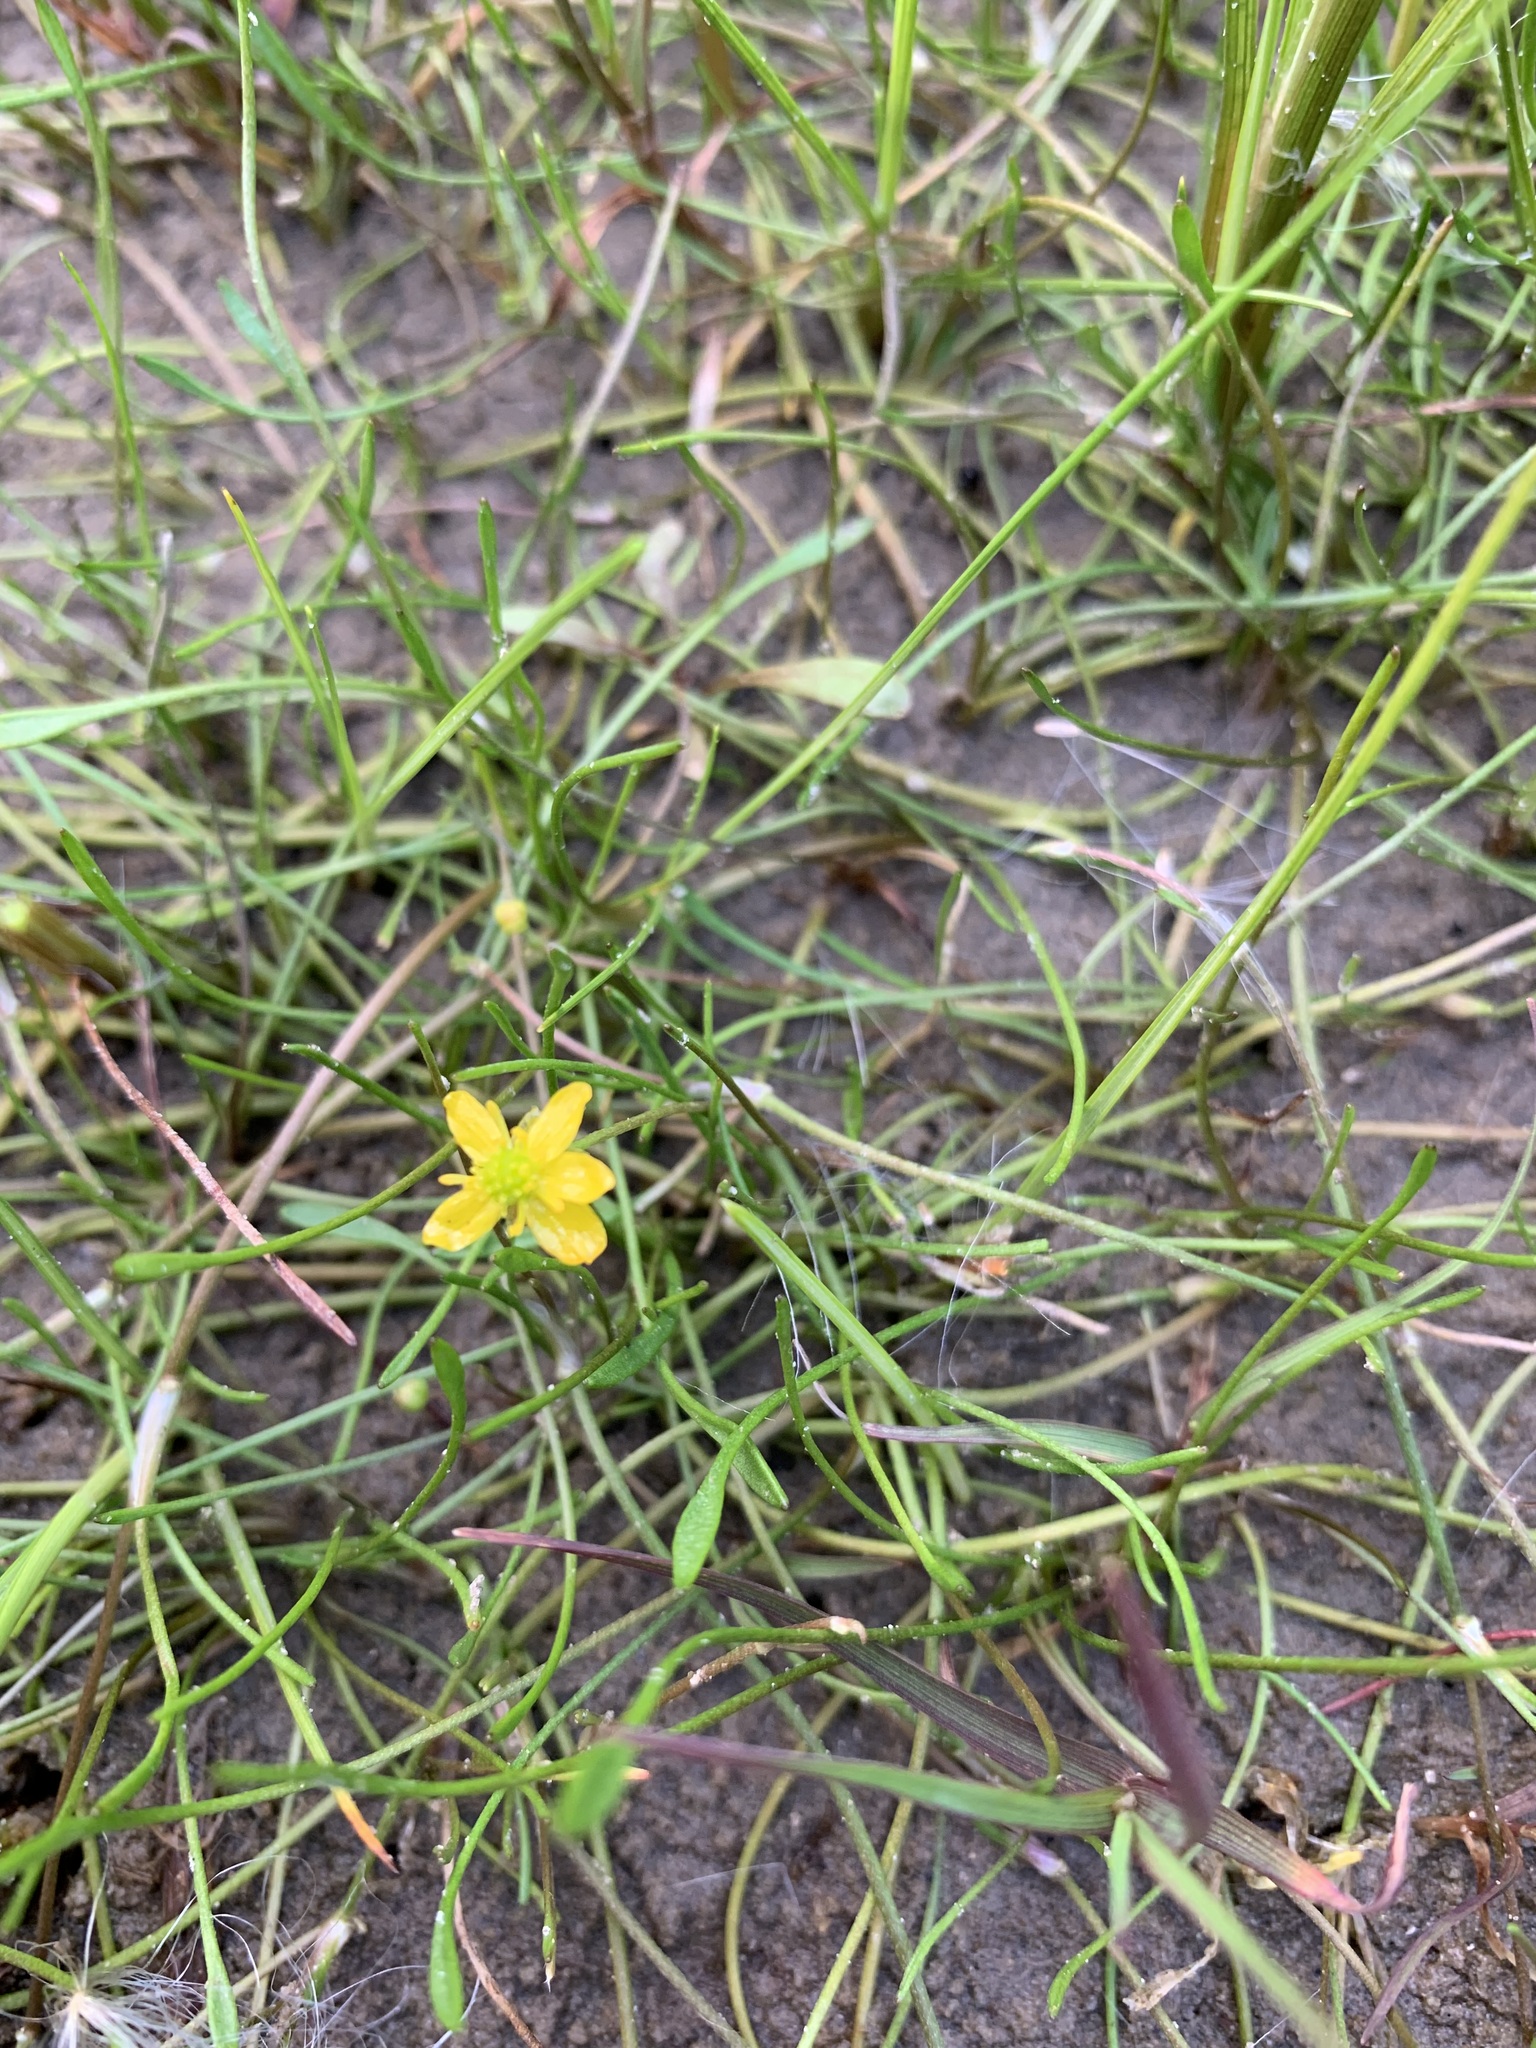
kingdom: Plantae
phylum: Tracheophyta
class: Magnoliopsida
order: Ranunculales
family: Ranunculaceae
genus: Ranunculus
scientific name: Ranunculus reptans
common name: Creeping spearwort
